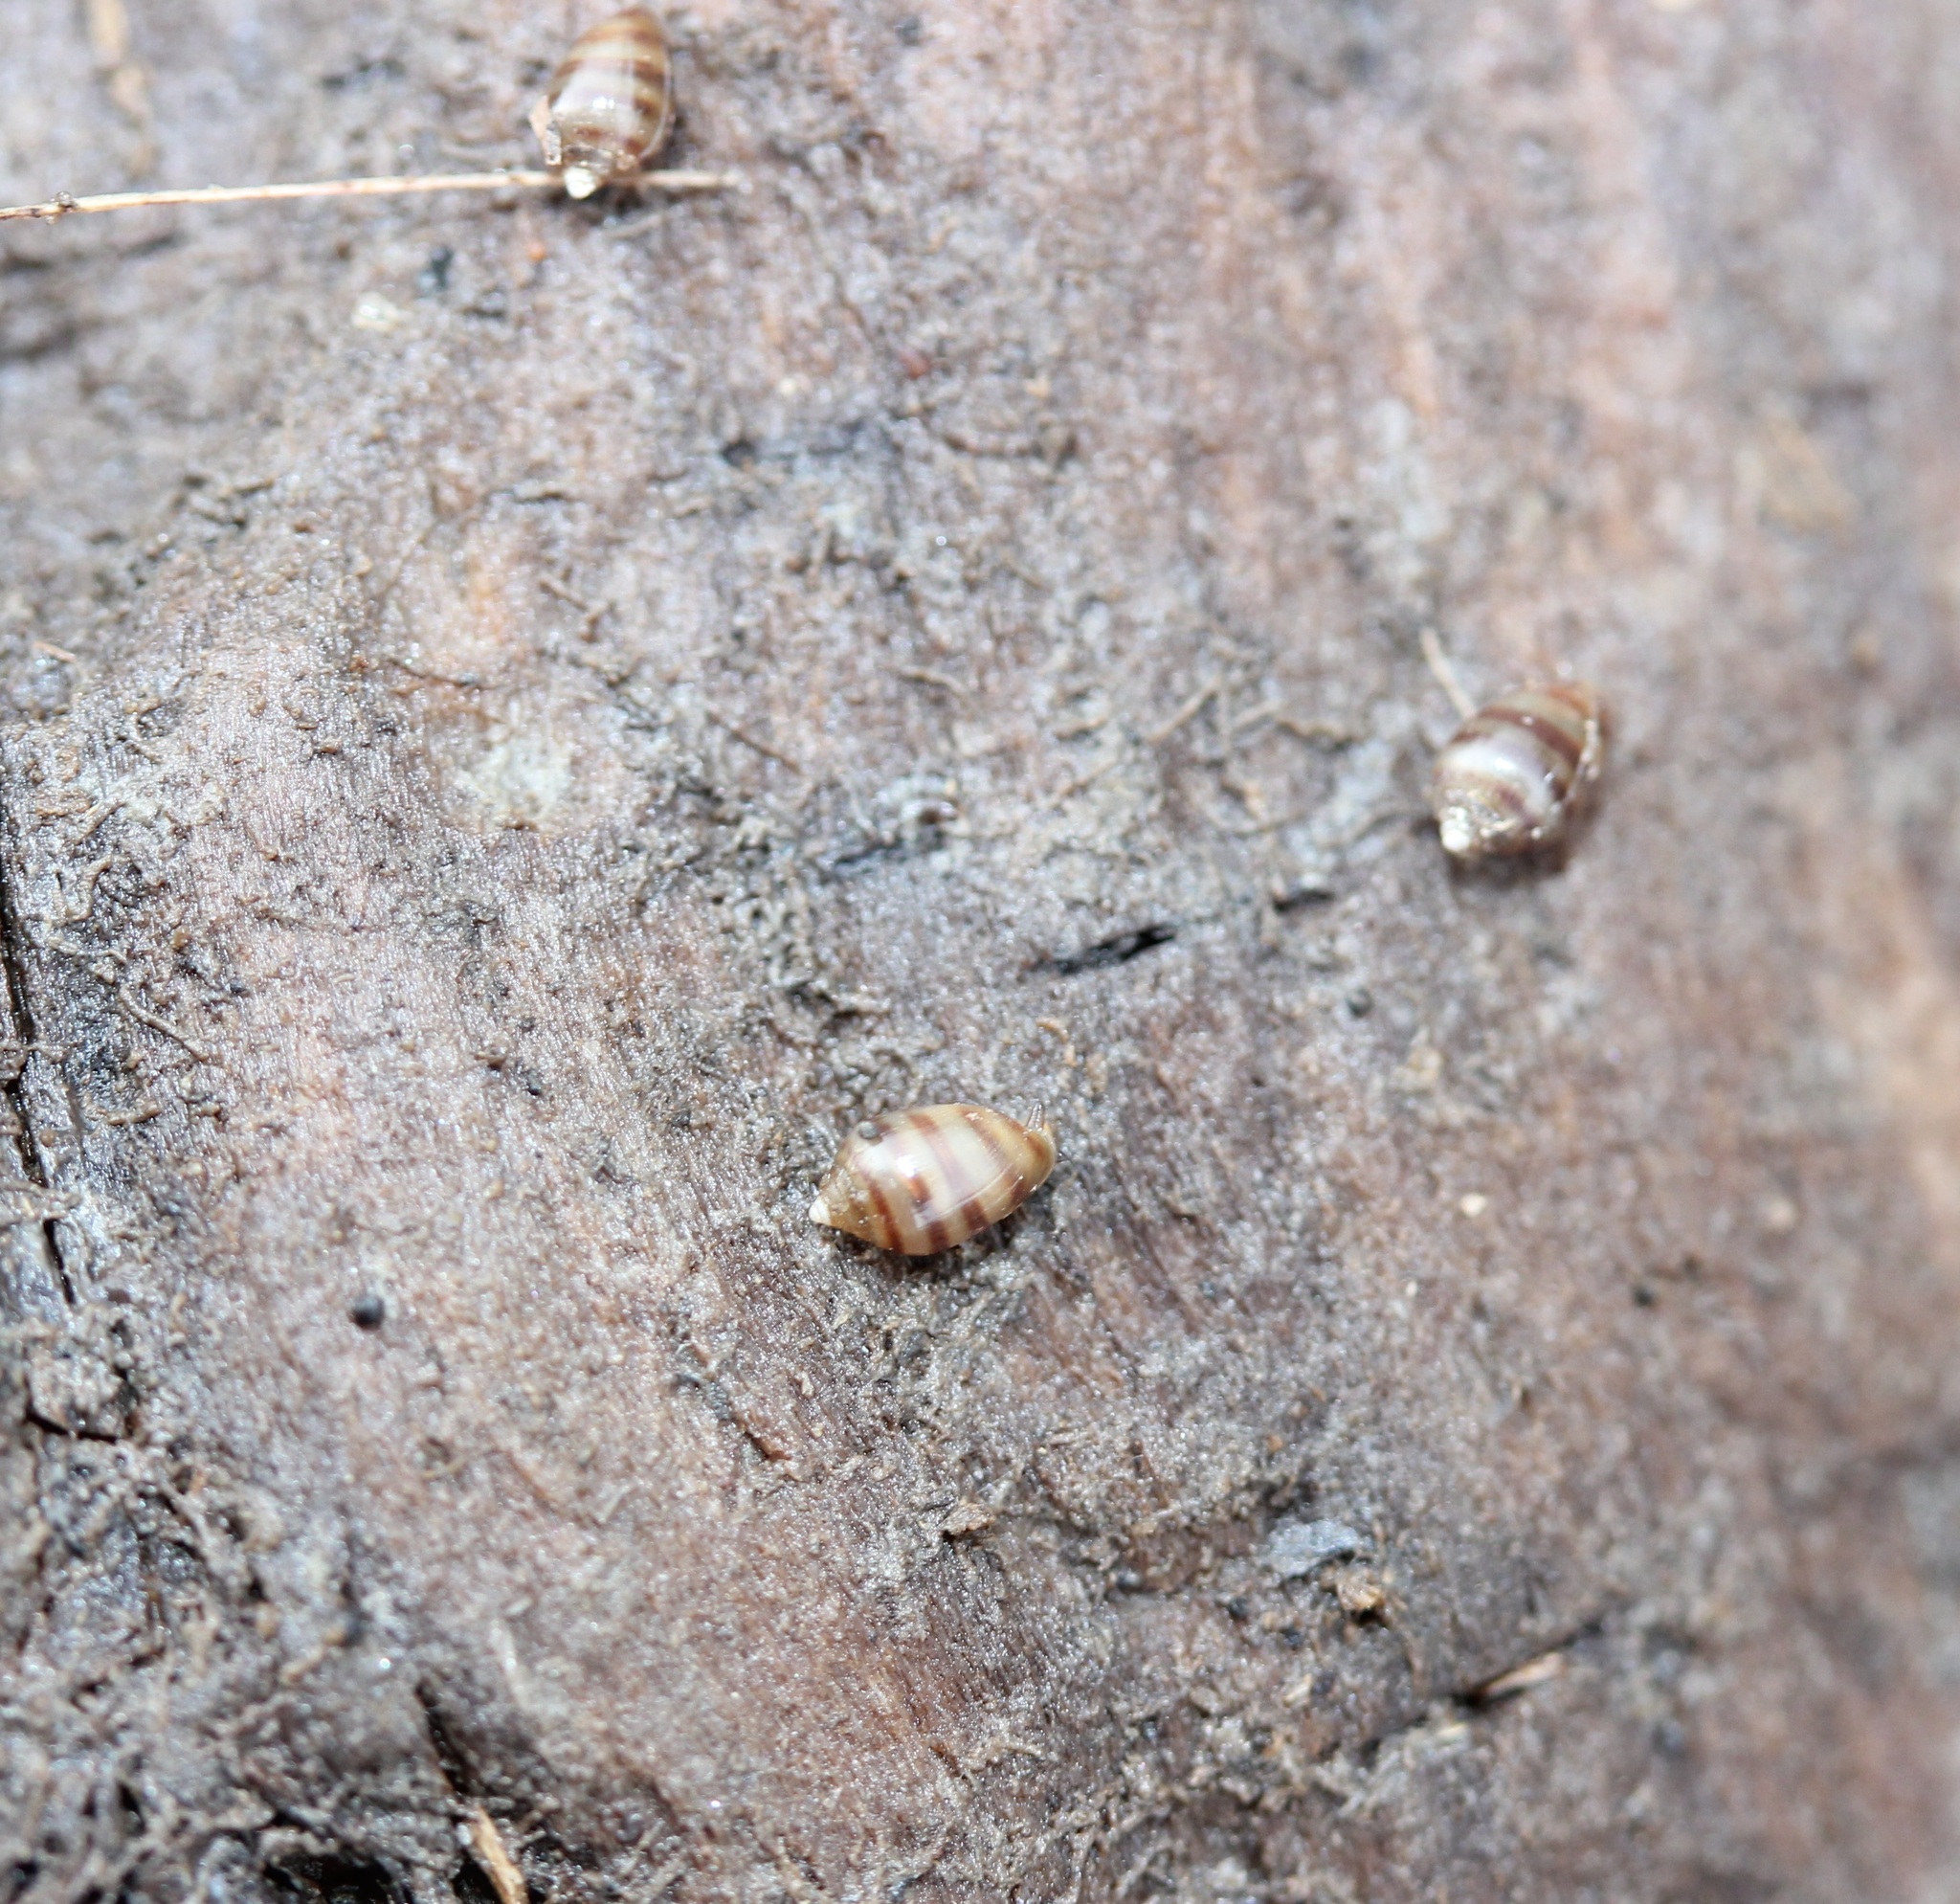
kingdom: Animalia
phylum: Mollusca
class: Gastropoda
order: Ellobiida
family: Ellobiidae
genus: Melampus
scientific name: Melampus bidentatus
